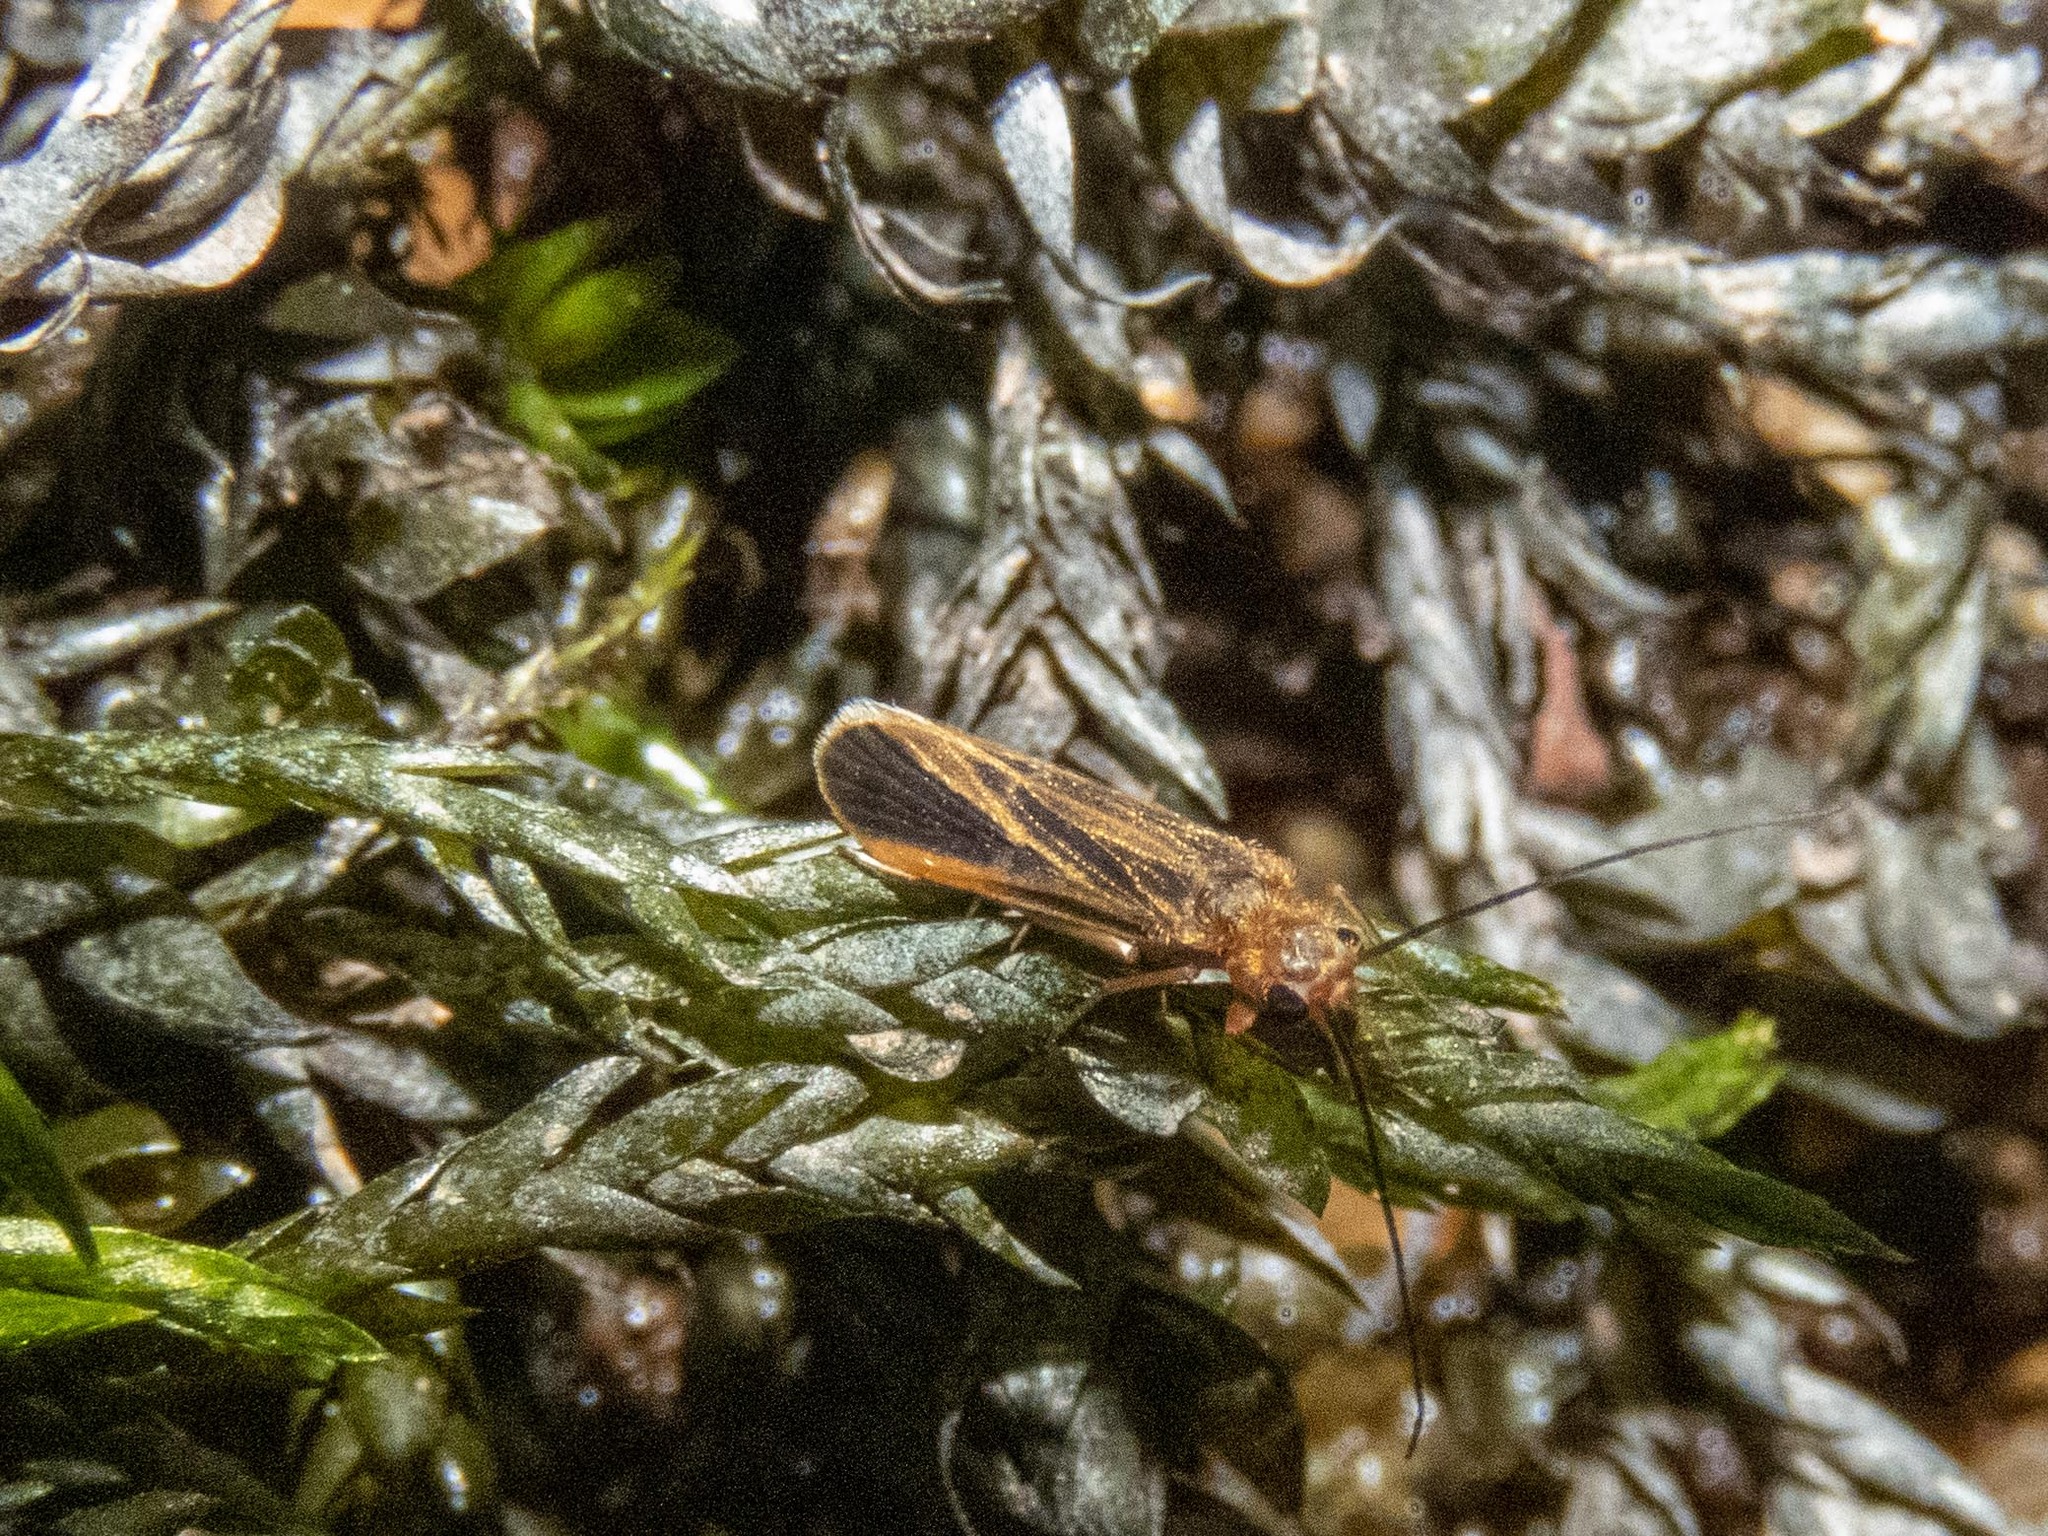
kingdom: Animalia
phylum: Arthropoda
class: Insecta
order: Trichoptera
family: Philopotamidae
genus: Chimarra
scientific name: Chimarra marginata
